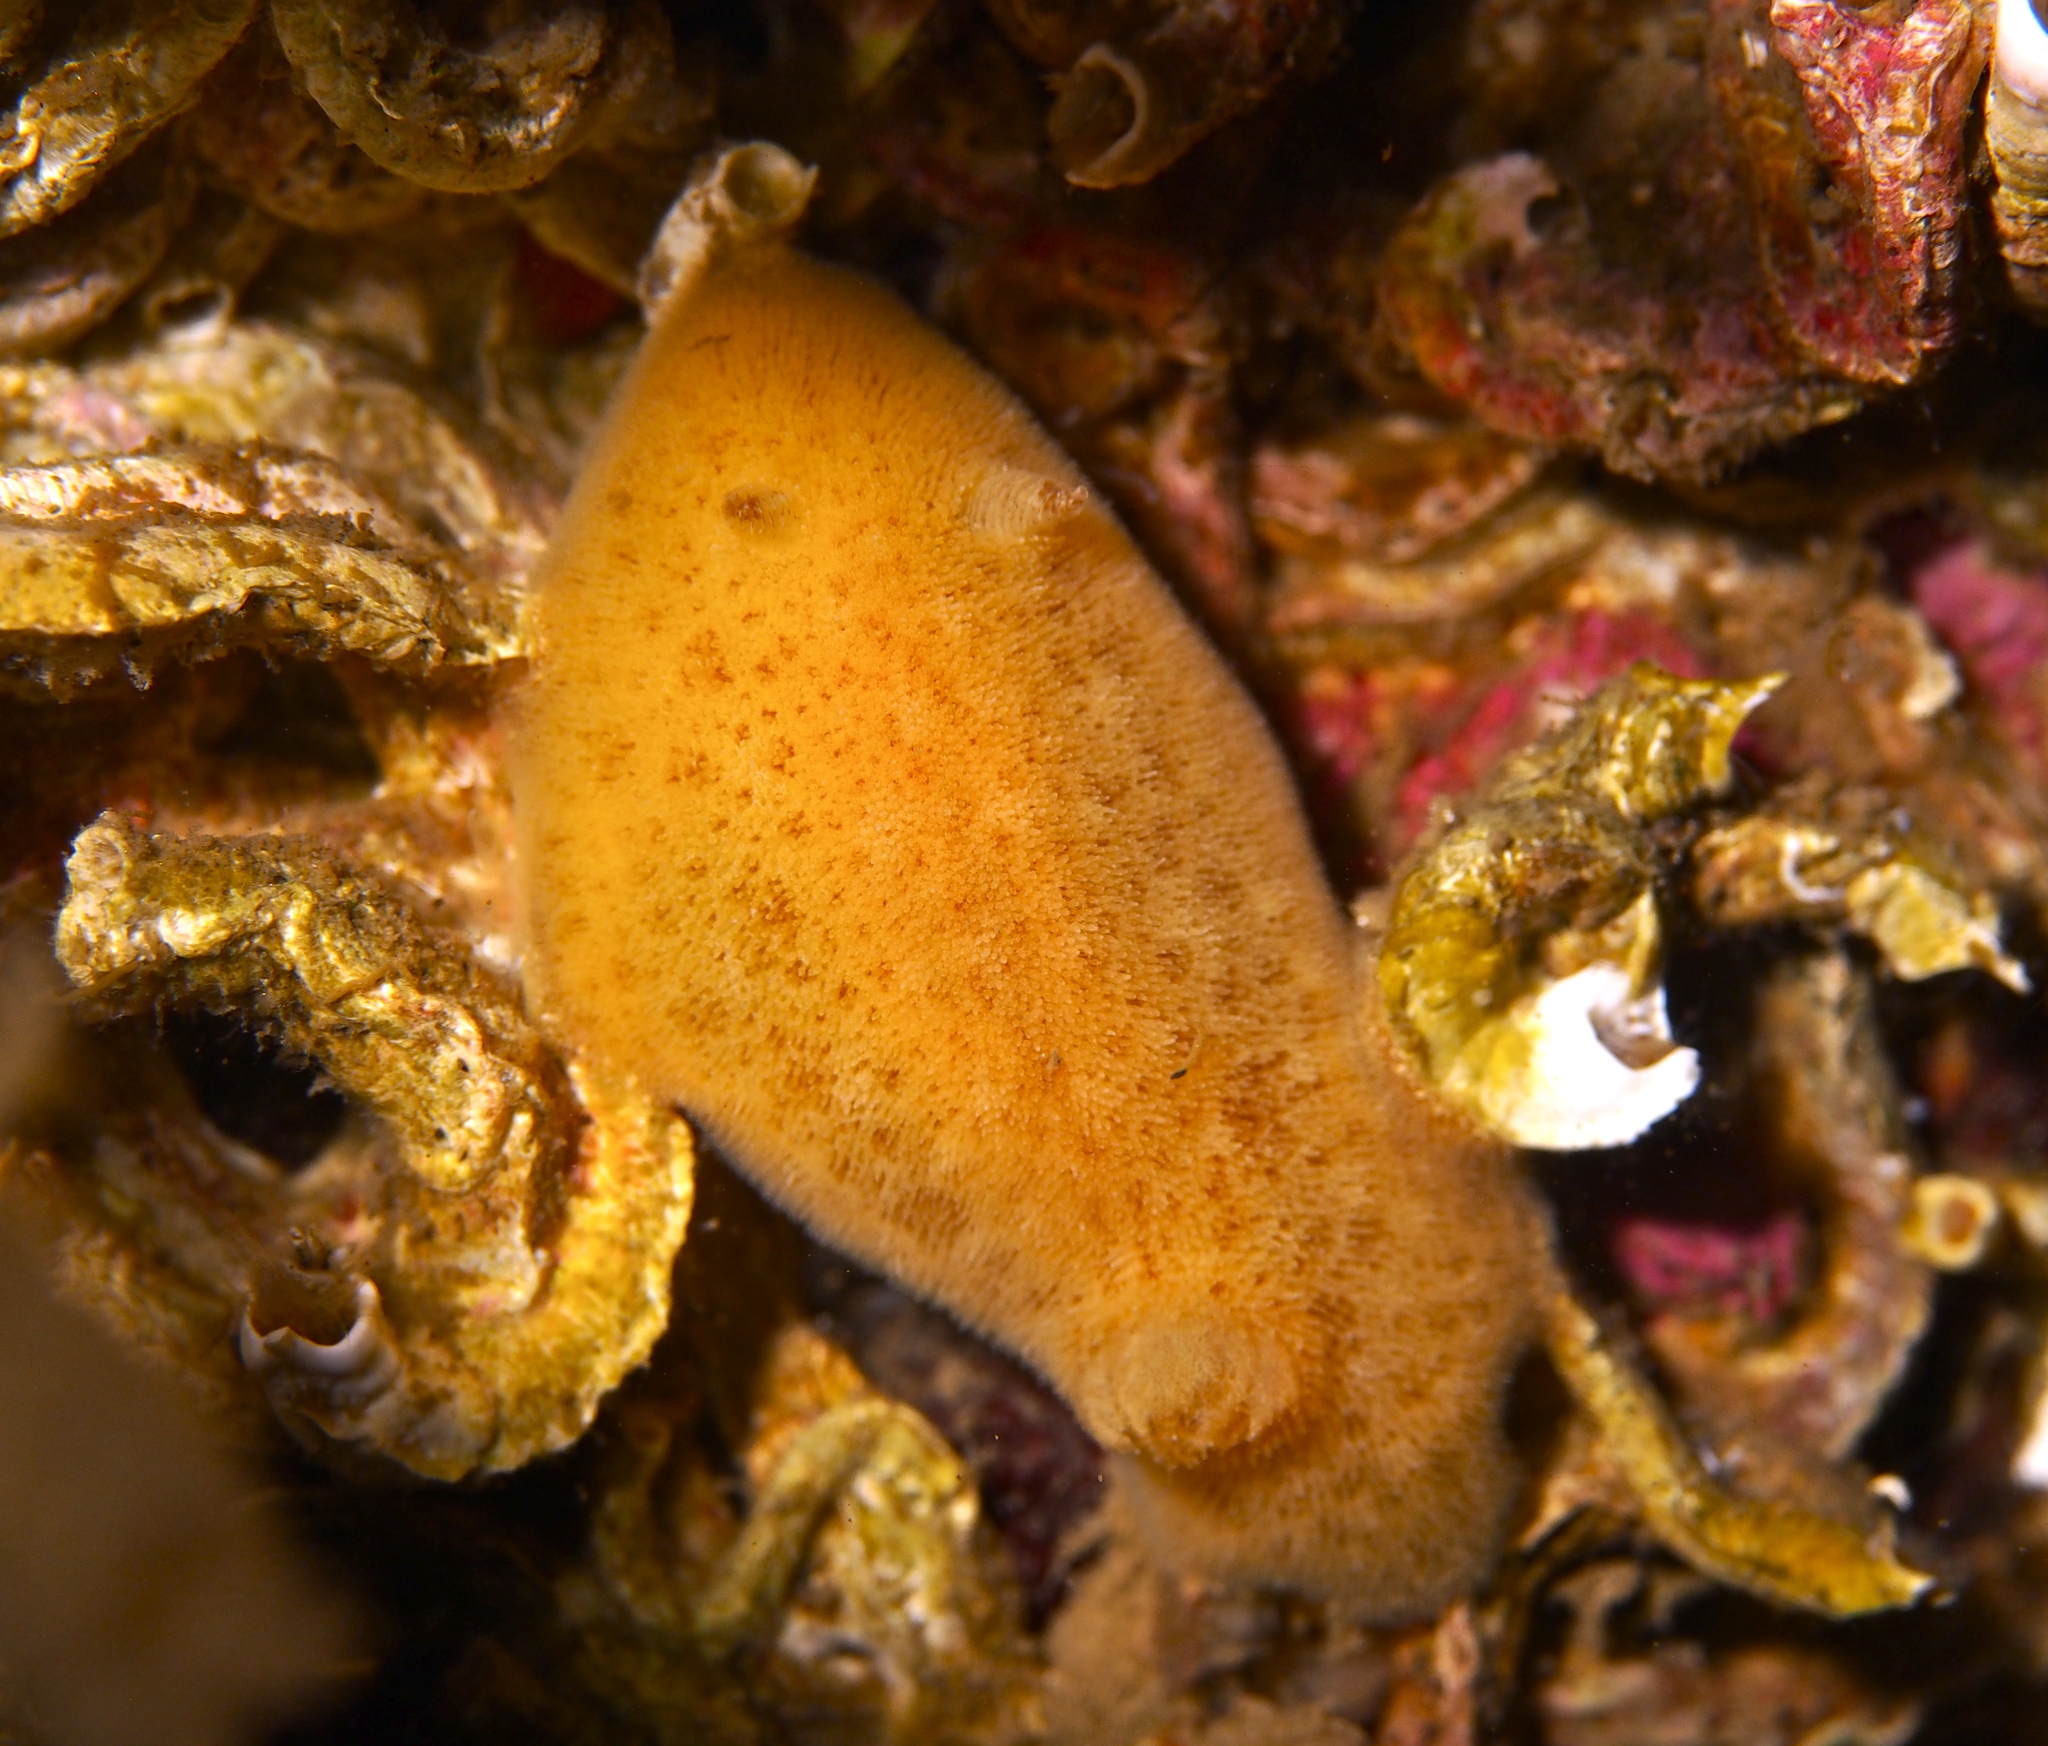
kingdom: Animalia
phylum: Mollusca
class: Gastropoda
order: Nudibranchia
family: Discodorididae
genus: Jorunna
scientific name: Jorunna tomentosa
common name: Grey sea slug
